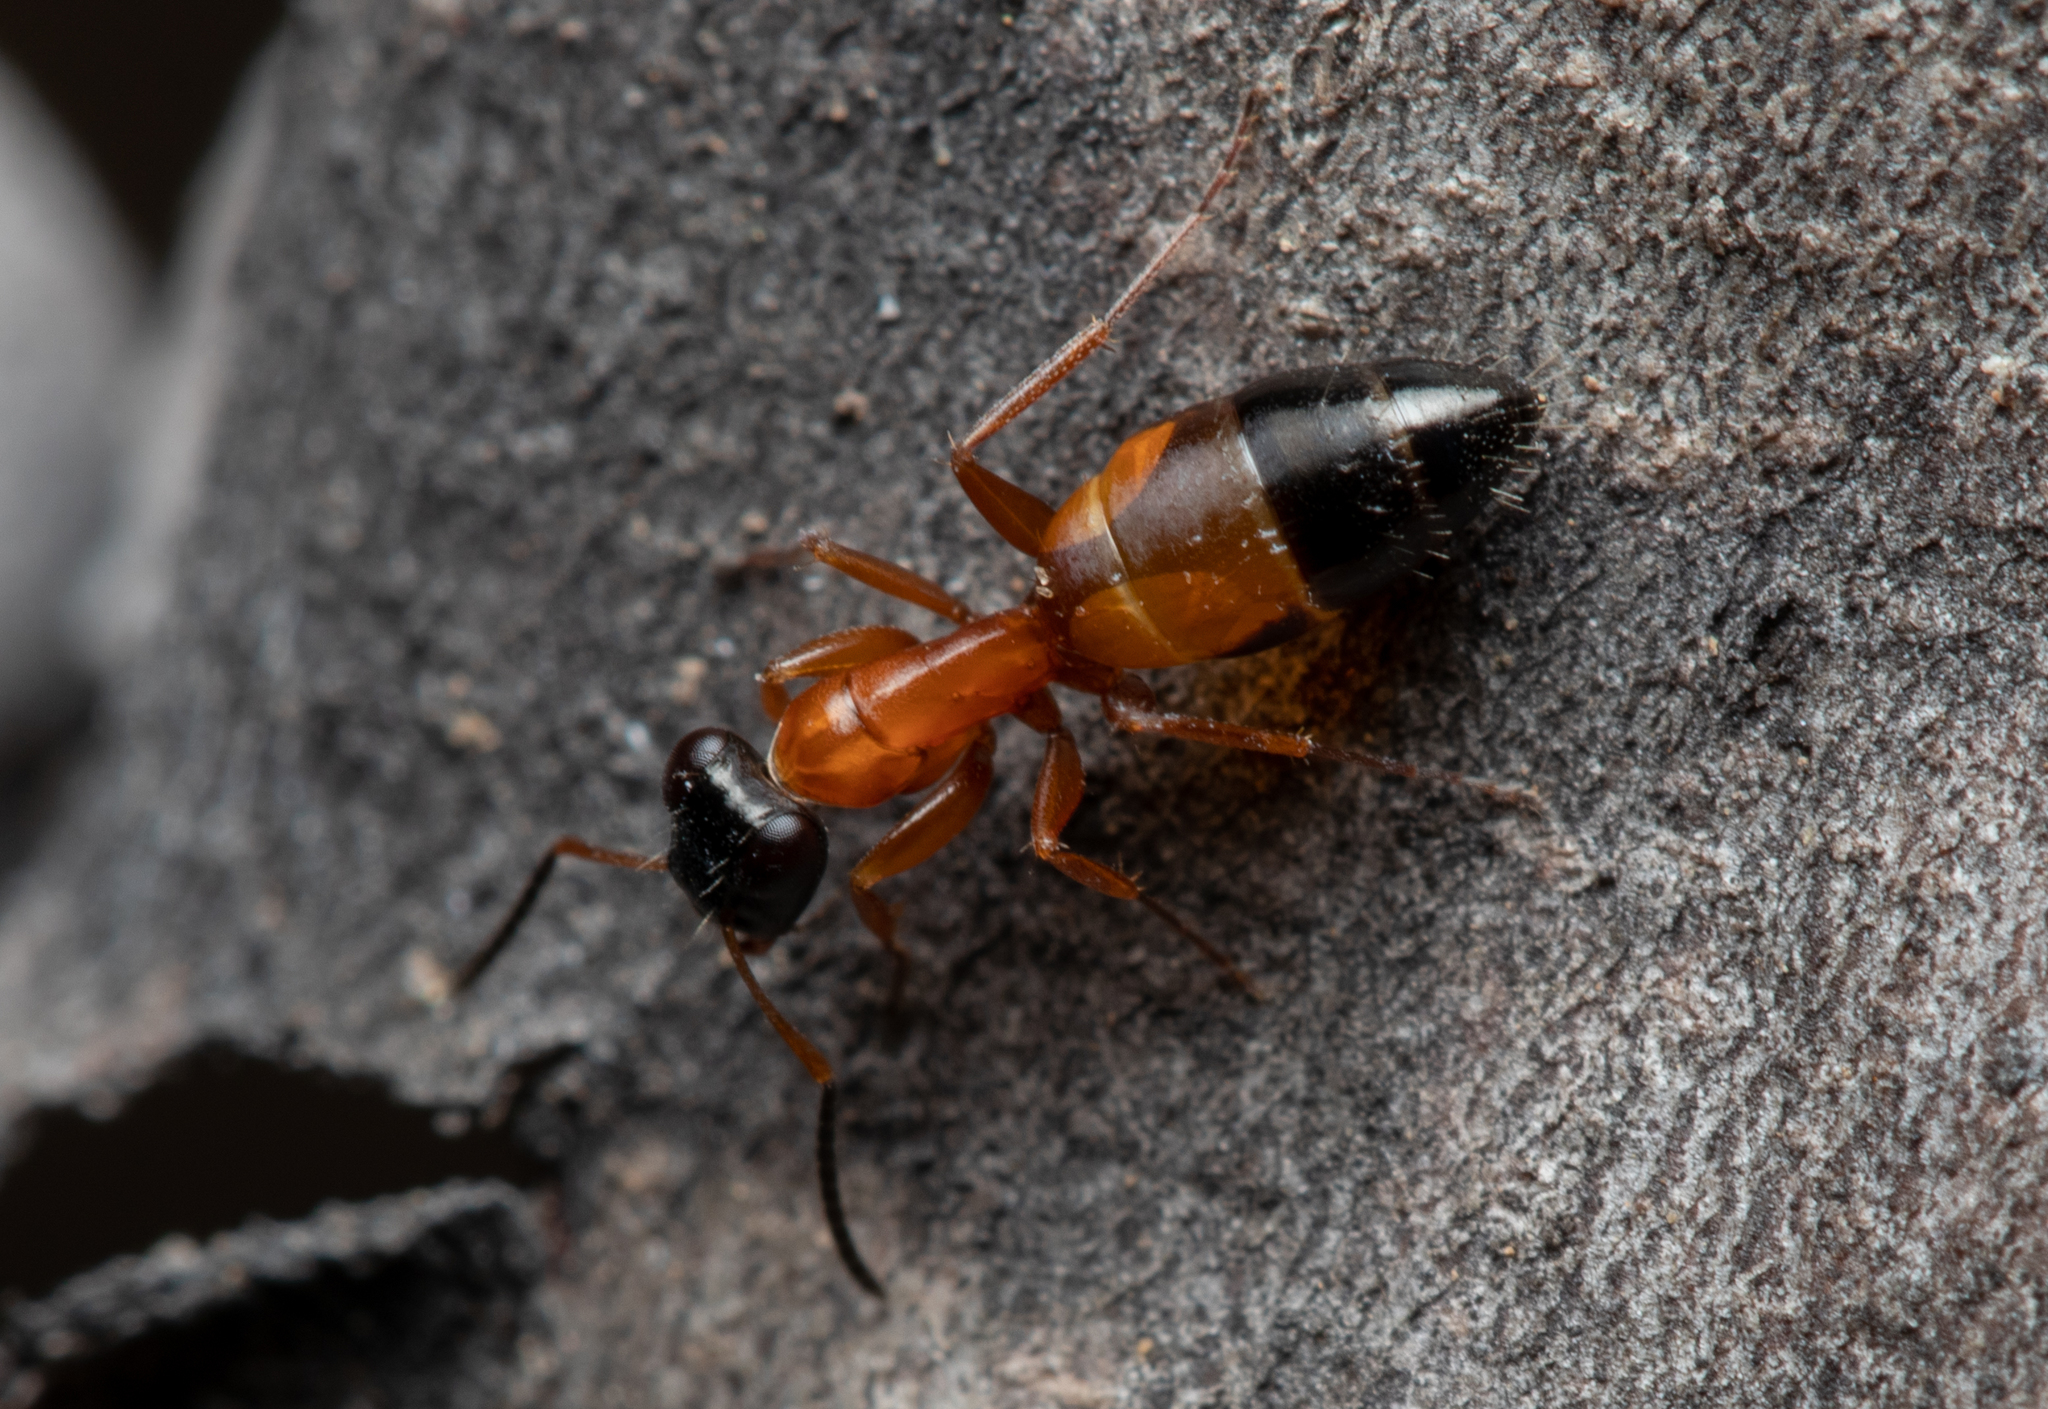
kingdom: Animalia
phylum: Arthropoda
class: Insecta
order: Hymenoptera
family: Formicidae
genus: Opisthopsis
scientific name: Opisthopsis rufithorax
